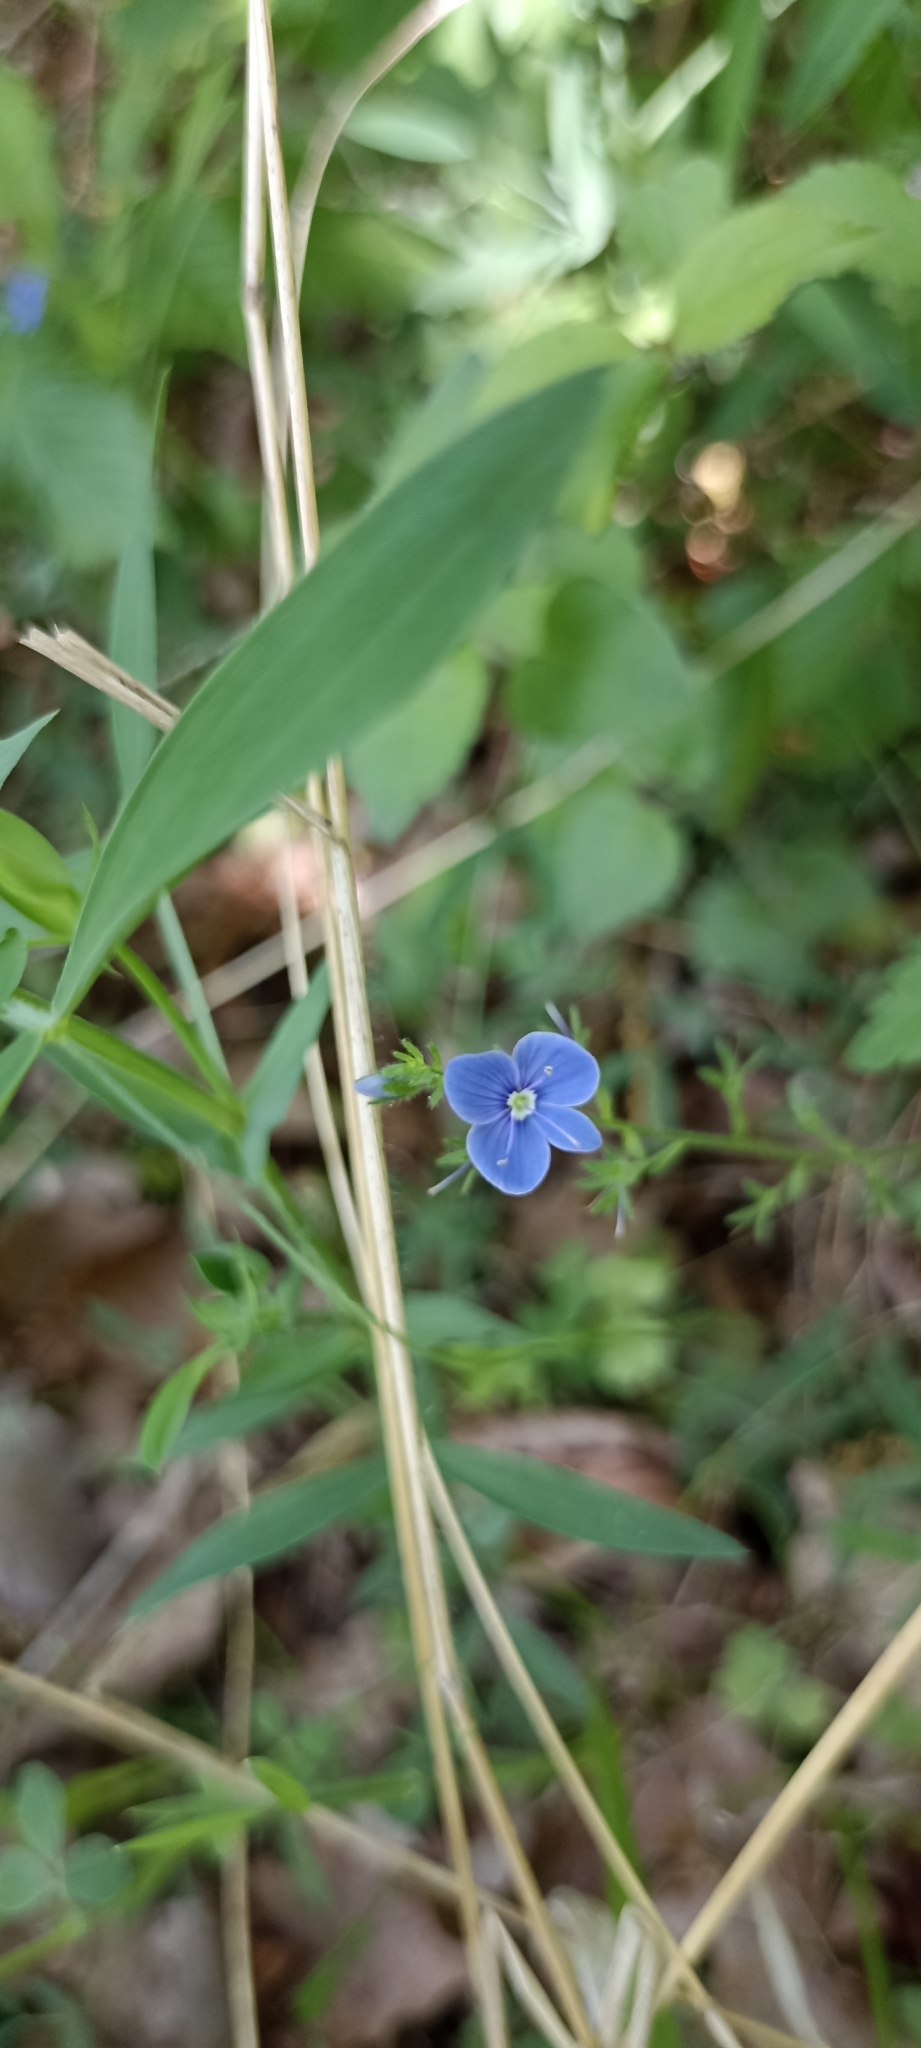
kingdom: Plantae
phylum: Tracheophyta
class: Magnoliopsida
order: Lamiales
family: Plantaginaceae
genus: Veronica
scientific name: Veronica chamaedrys
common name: Germander speedwell
